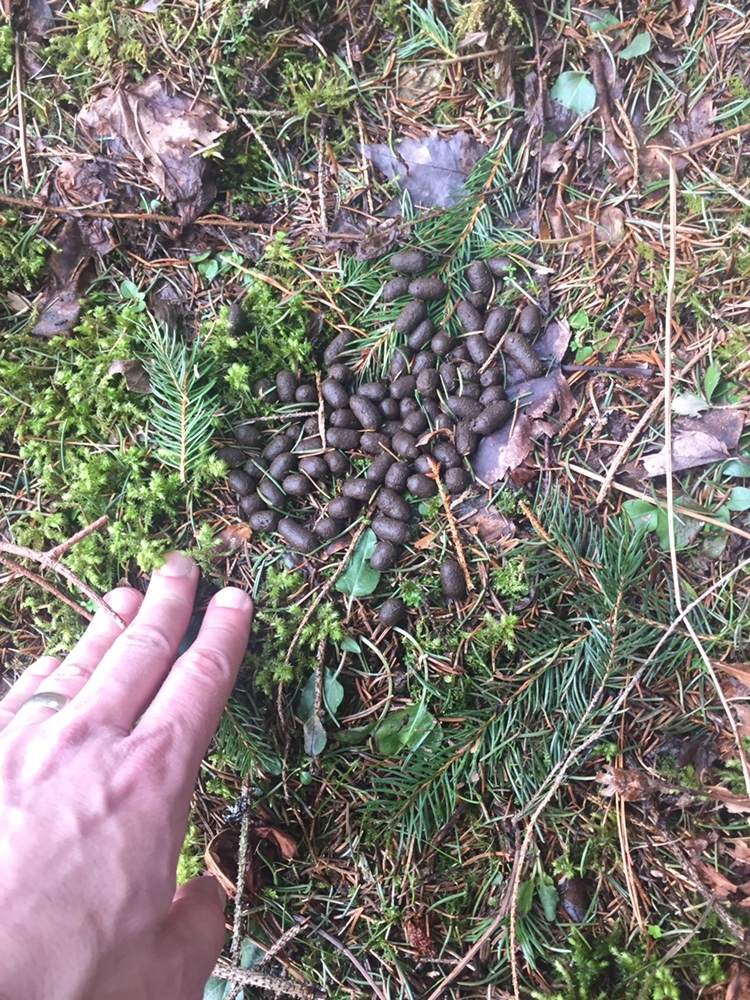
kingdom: Animalia
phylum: Chordata
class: Mammalia
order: Artiodactyla
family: Cervidae
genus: Odocoileus
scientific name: Odocoileus virginianus
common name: White-tailed deer
